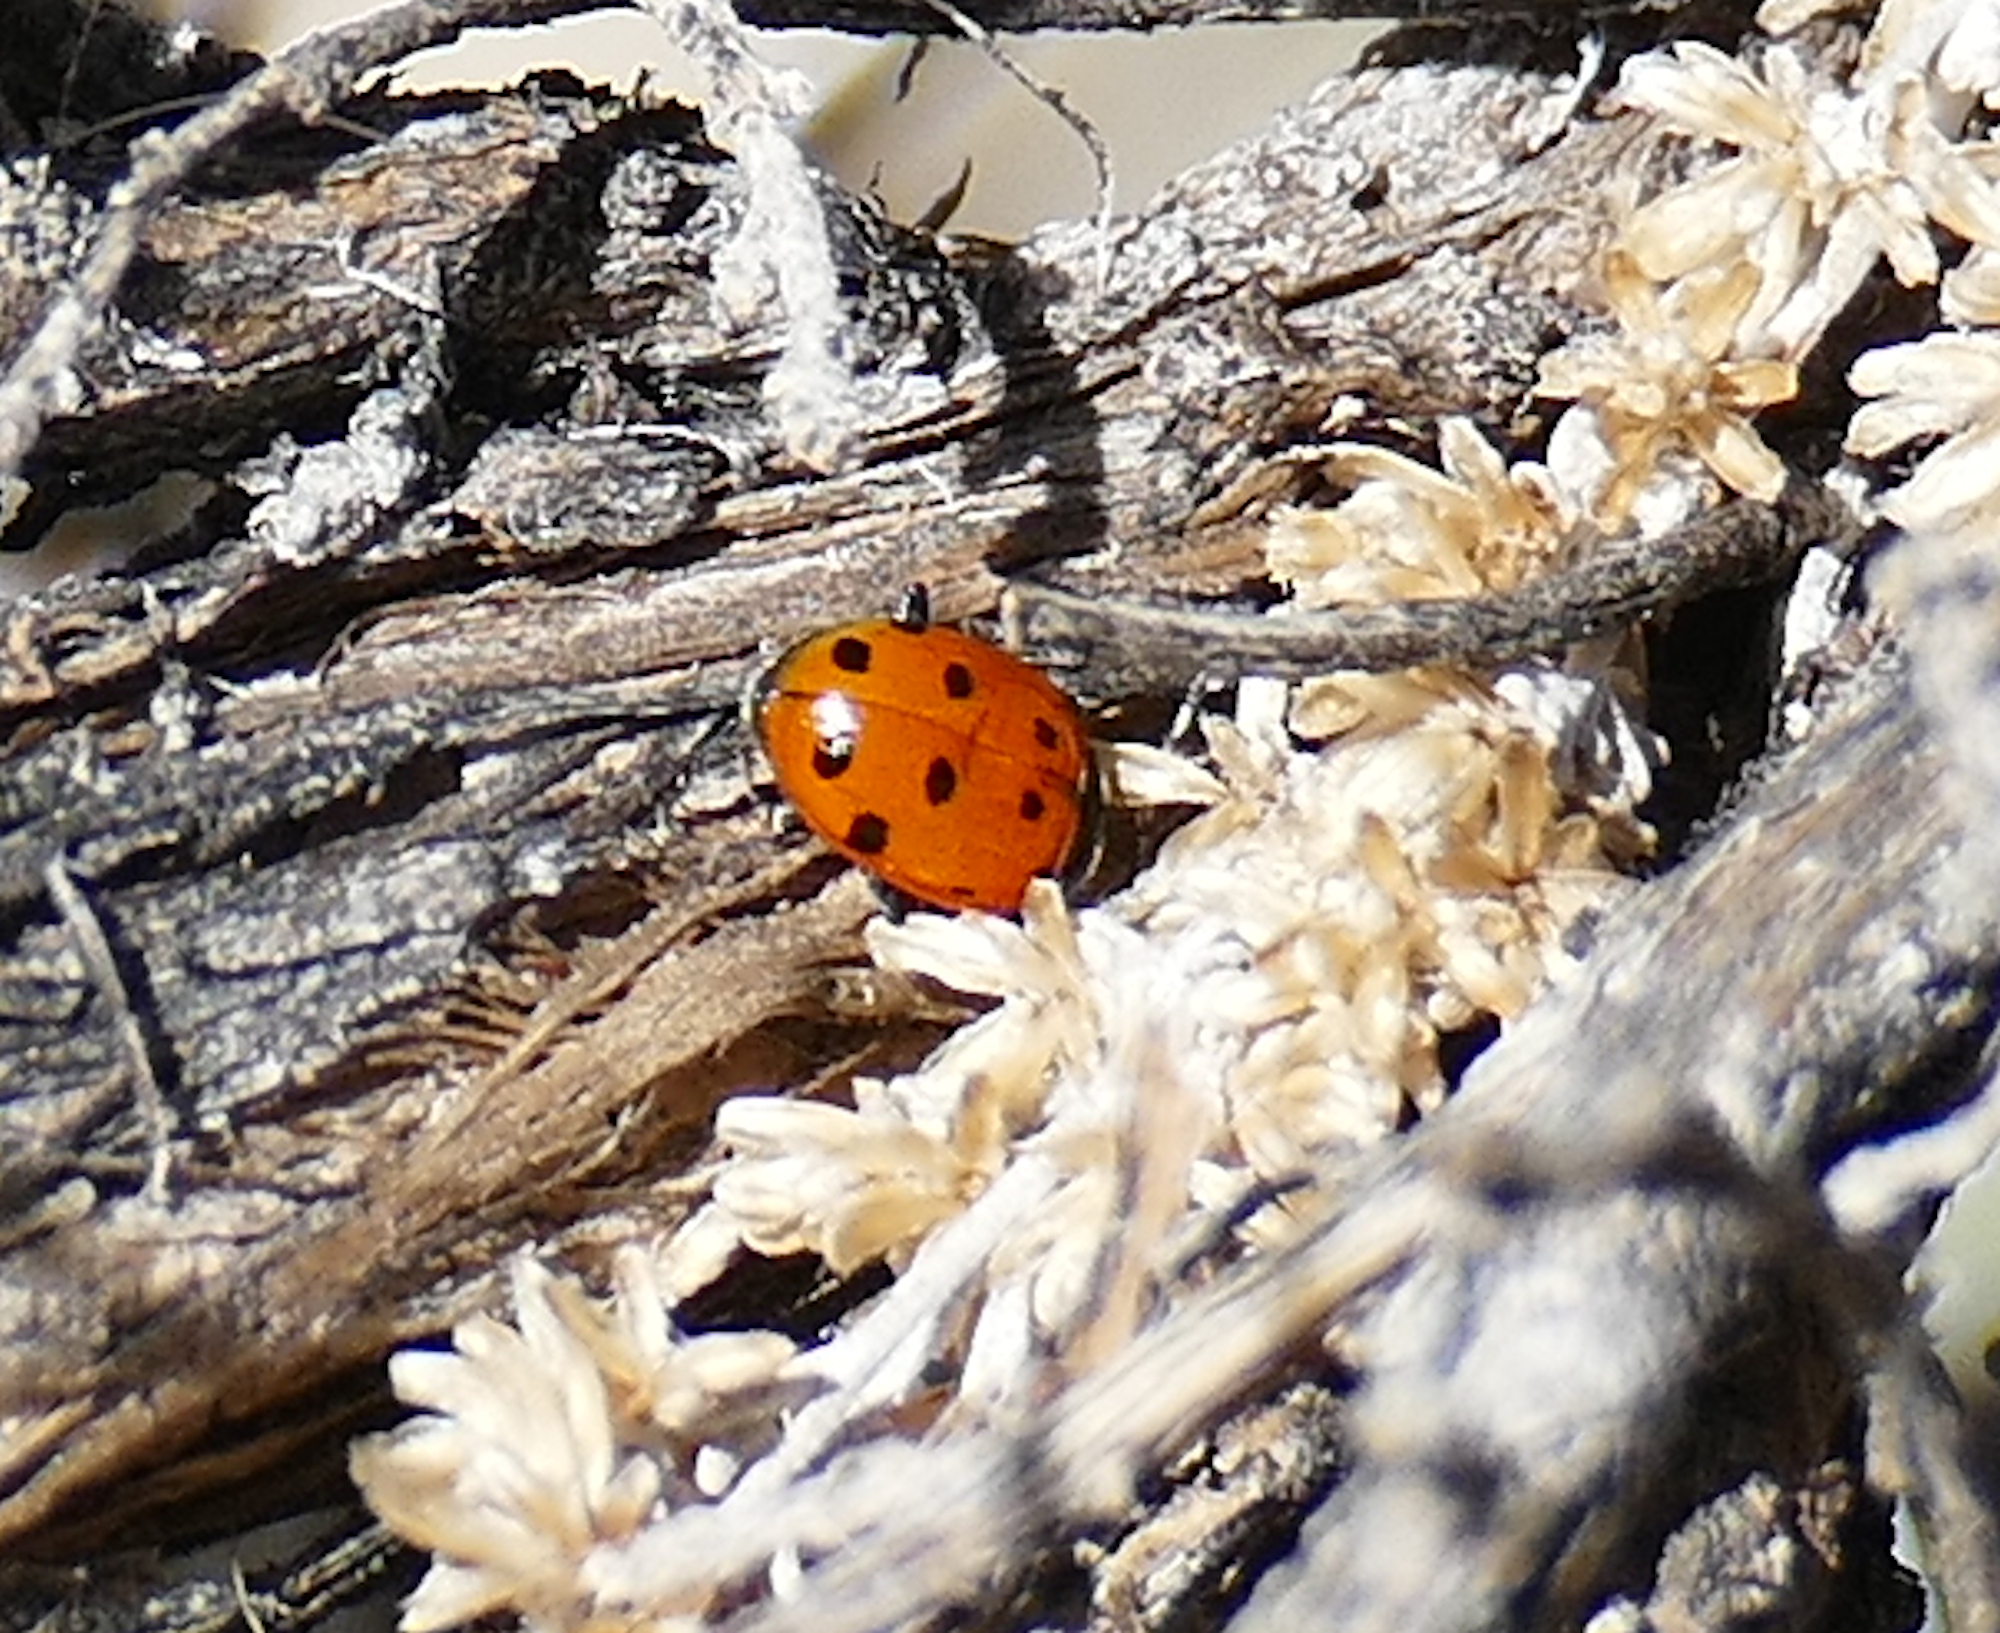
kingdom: Animalia
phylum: Arthropoda
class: Insecta
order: Coleoptera
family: Coccinellidae
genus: Hippodamia
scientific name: Hippodamia convergens
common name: Convergent lady beetle
